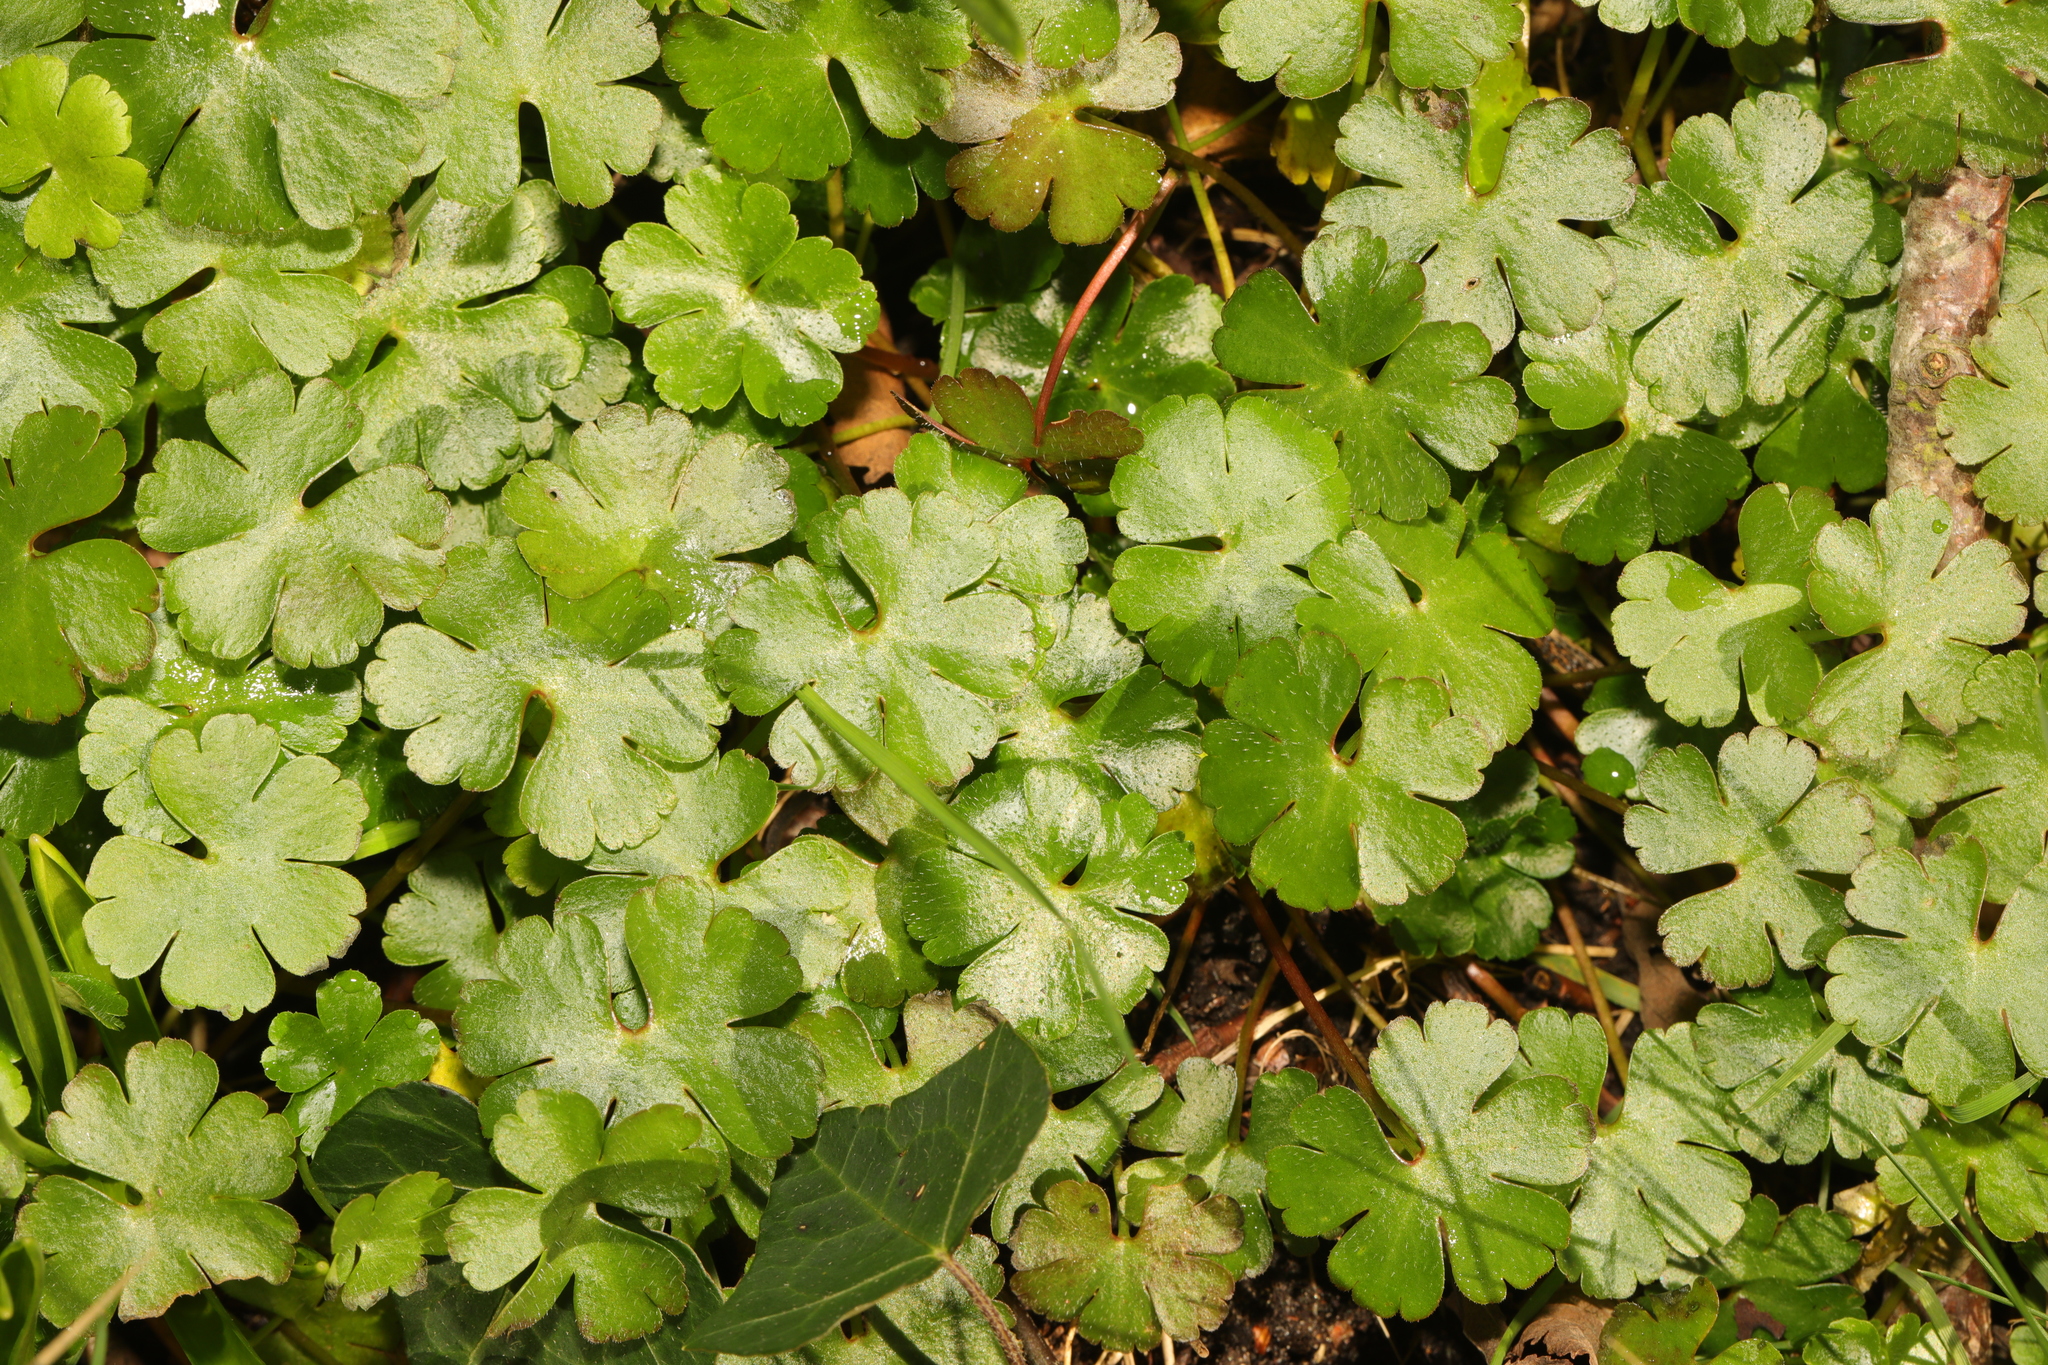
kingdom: Plantae
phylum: Tracheophyta
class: Magnoliopsida
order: Geraniales
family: Geraniaceae
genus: Geranium
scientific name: Geranium lucidum
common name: Shining crane's-bill
